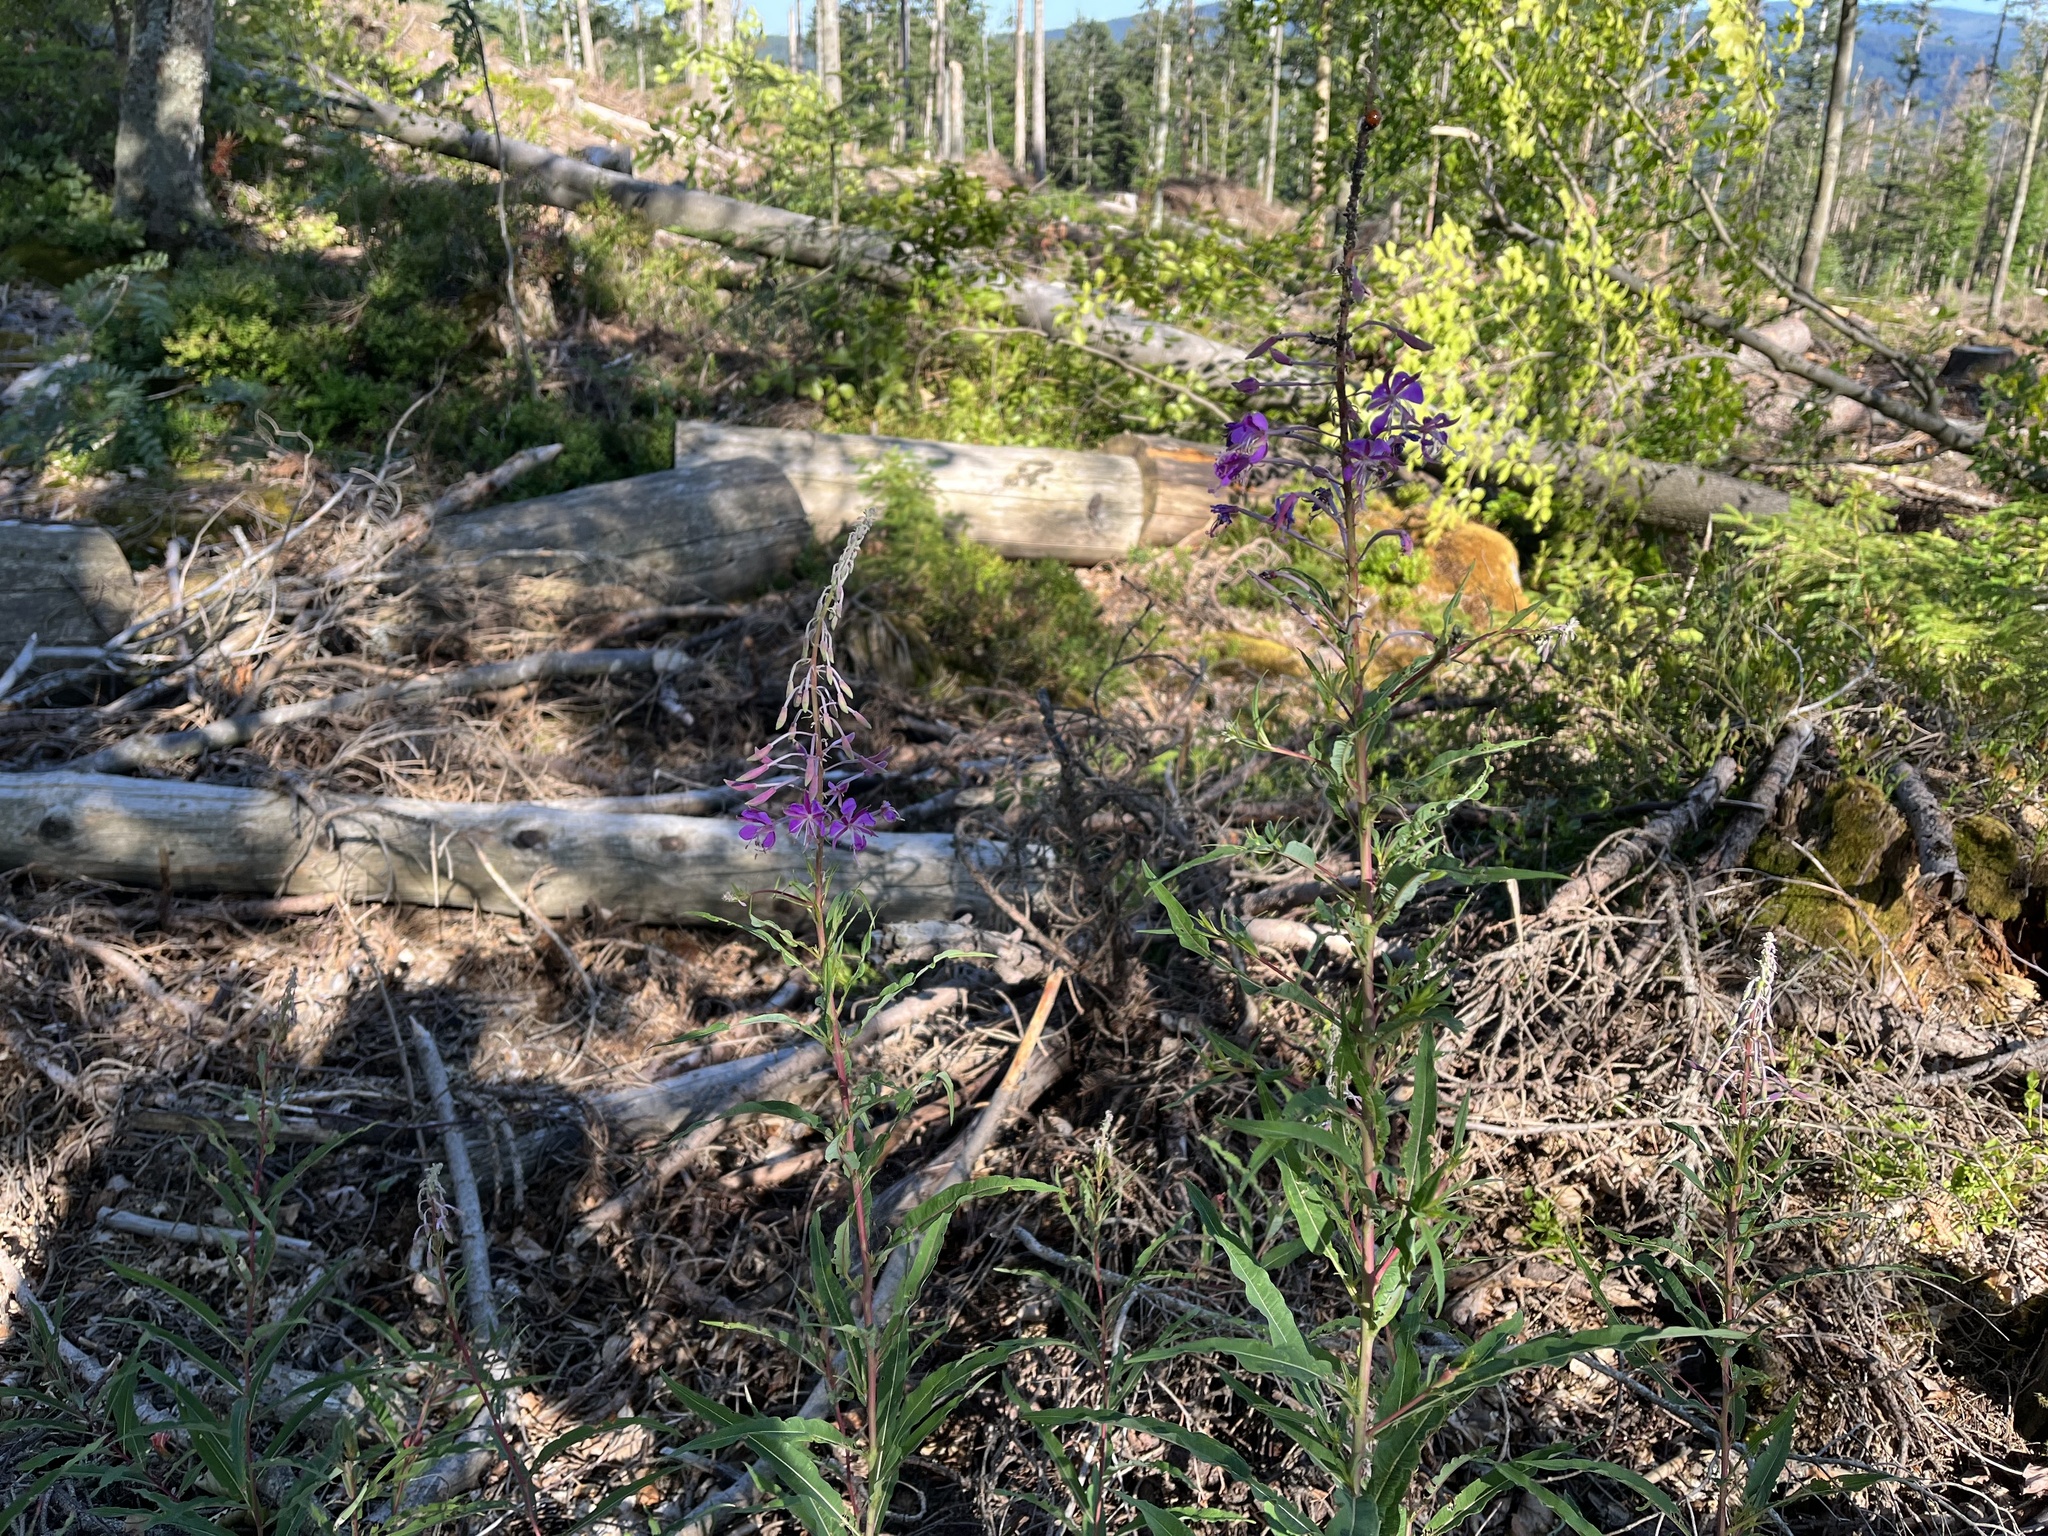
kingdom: Plantae
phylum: Tracheophyta
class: Magnoliopsida
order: Myrtales
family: Onagraceae
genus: Chamaenerion
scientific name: Chamaenerion angustifolium
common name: Fireweed
